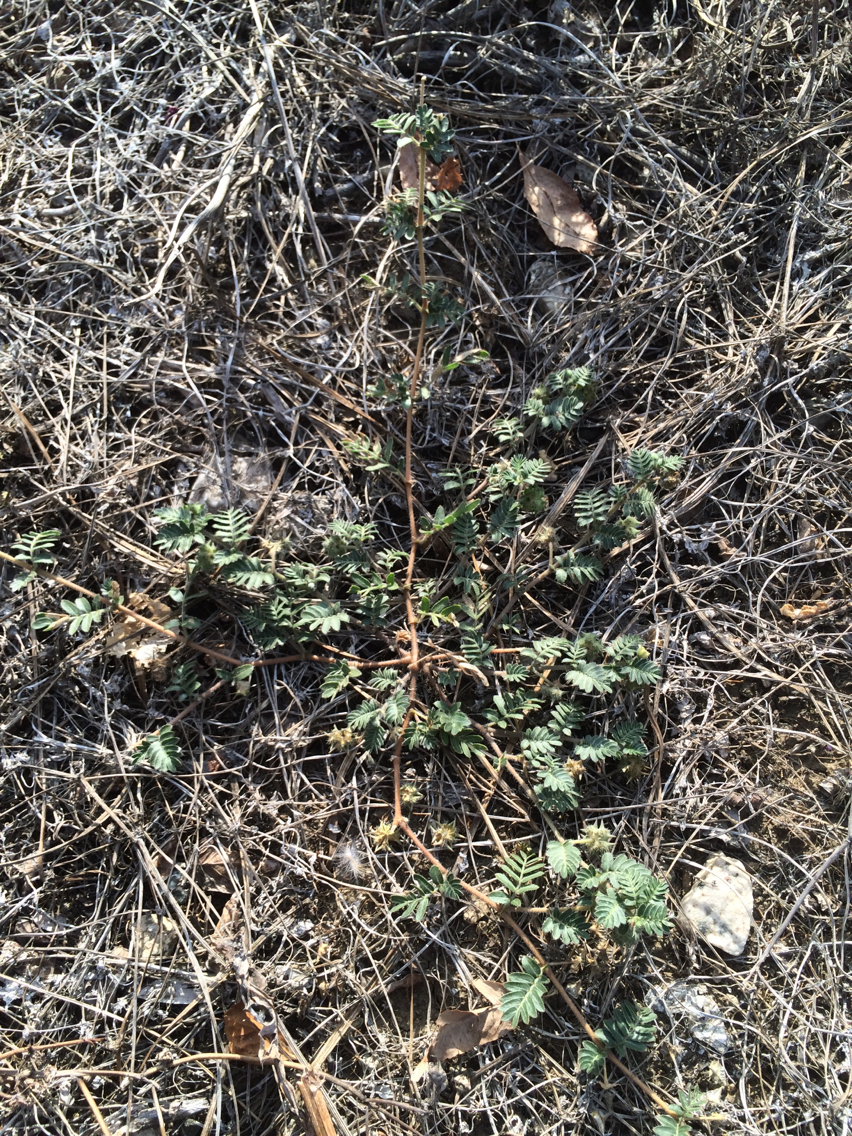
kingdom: Plantae
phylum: Tracheophyta
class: Magnoliopsida
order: Zygophyllales
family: Zygophyllaceae
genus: Tribulus
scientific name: Tribulus terrestris
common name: Puncturevine
